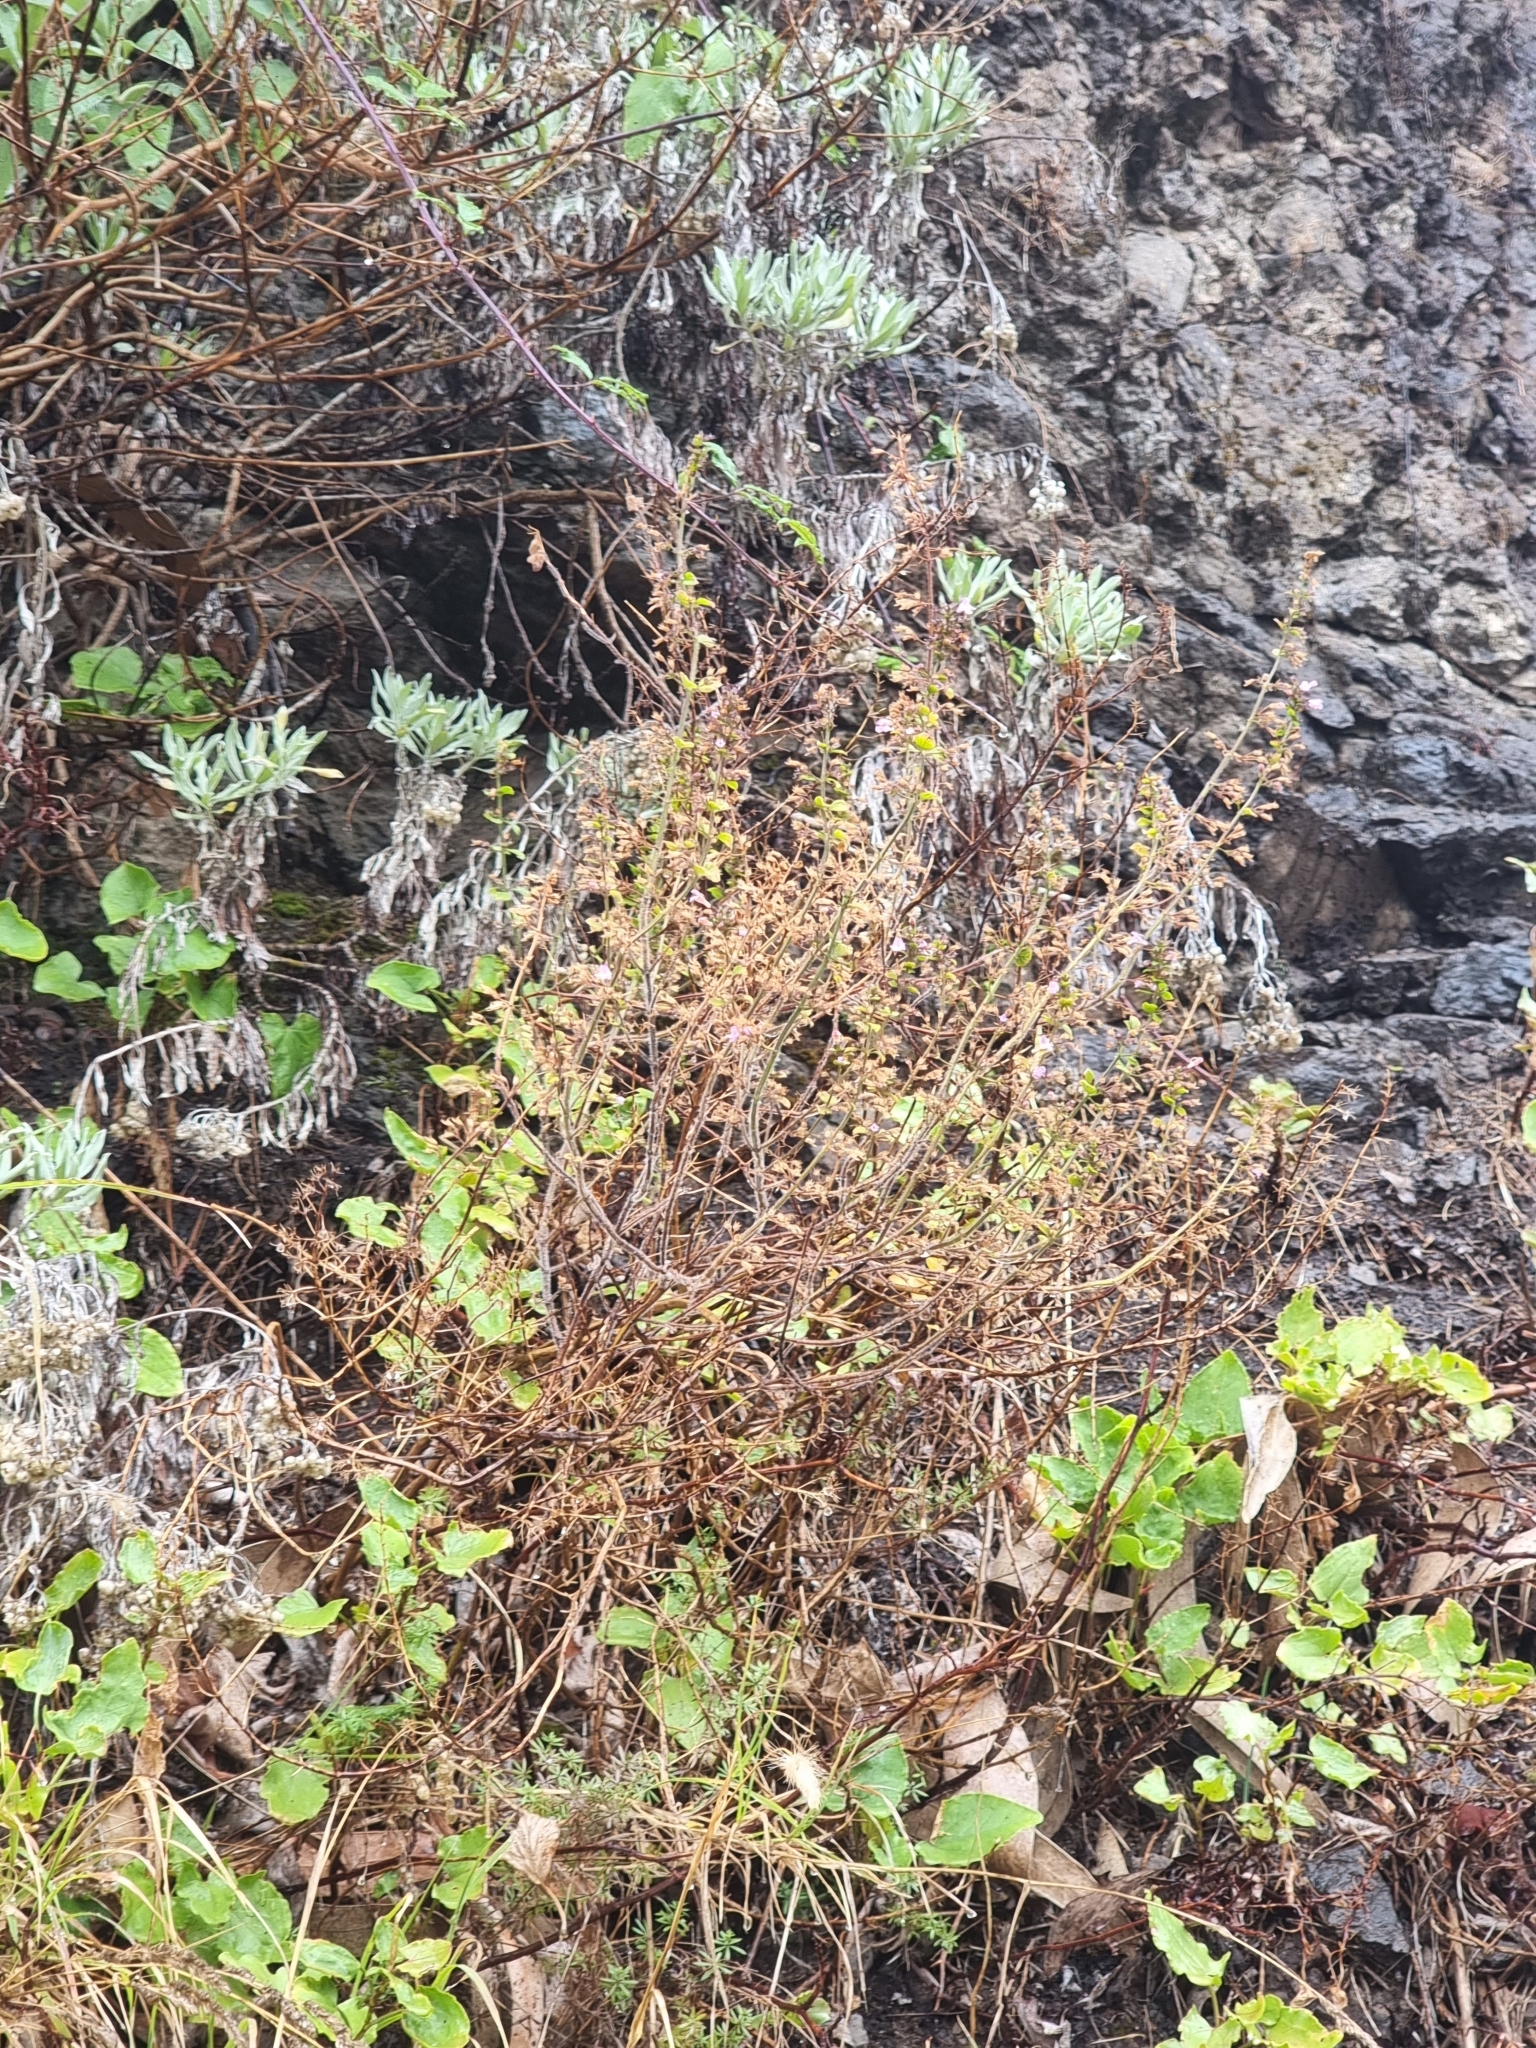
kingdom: Plantae
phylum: Tracheophyta
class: Magnoliopsida
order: Lamiales
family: Lamiaceae
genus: Clinopodium
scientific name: Clinopodium menthifolium
